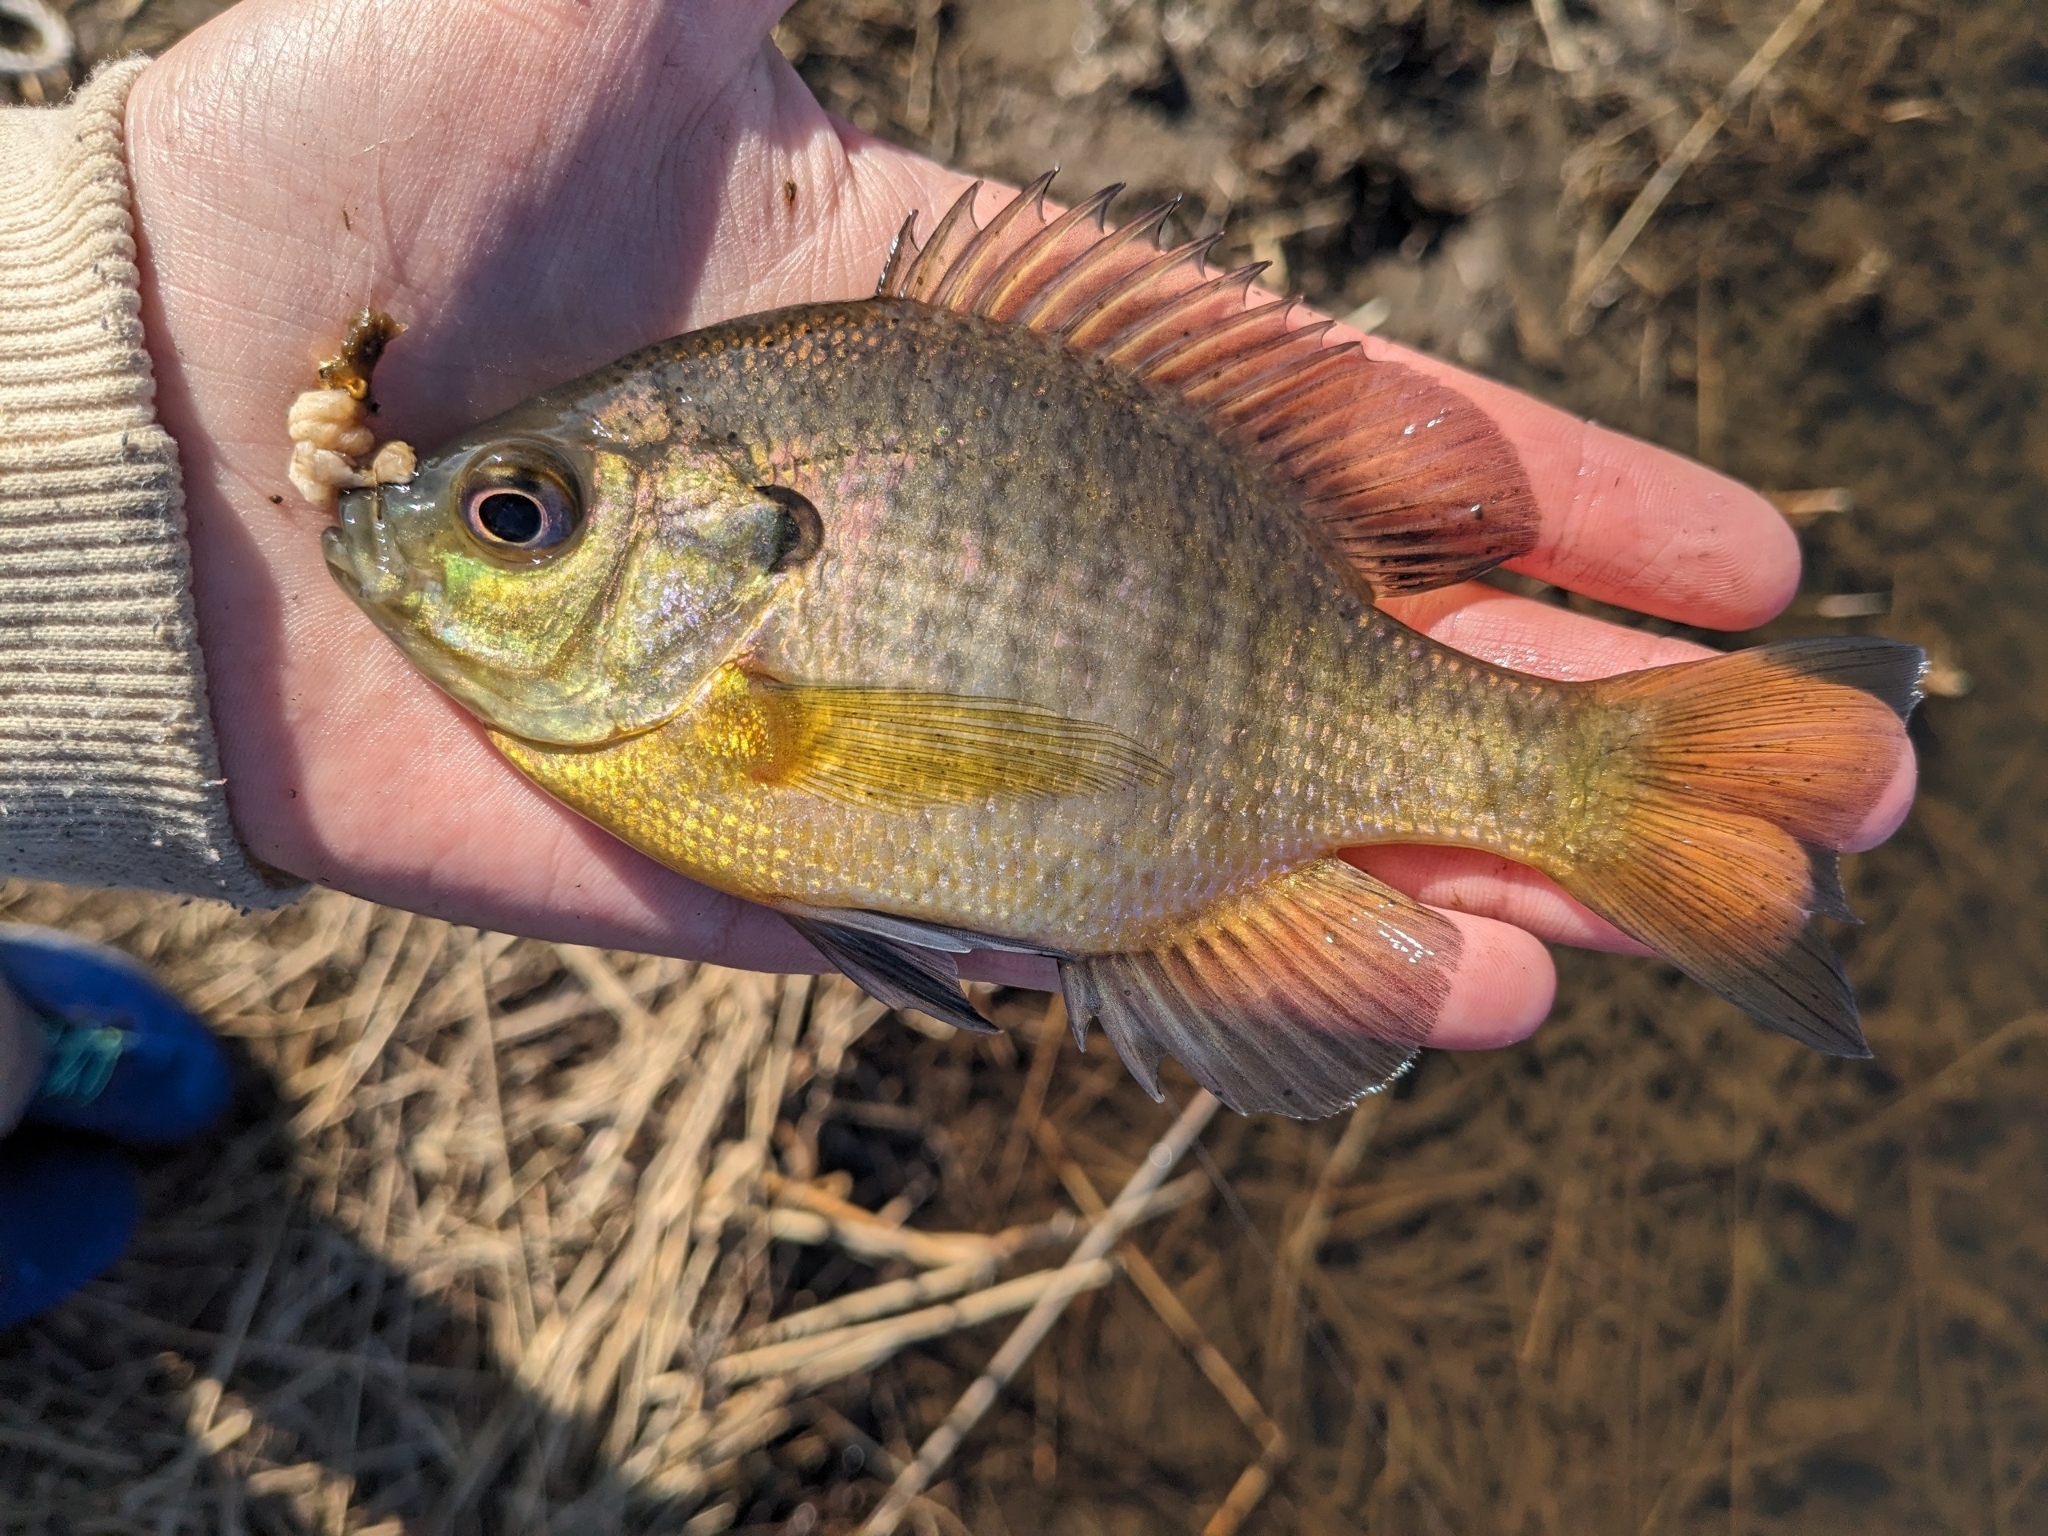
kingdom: Animalia
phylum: Chordata
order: Perciformes
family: Centrarchidae
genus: Lepomis
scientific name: Lepomis macrochirus
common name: Bluegill
